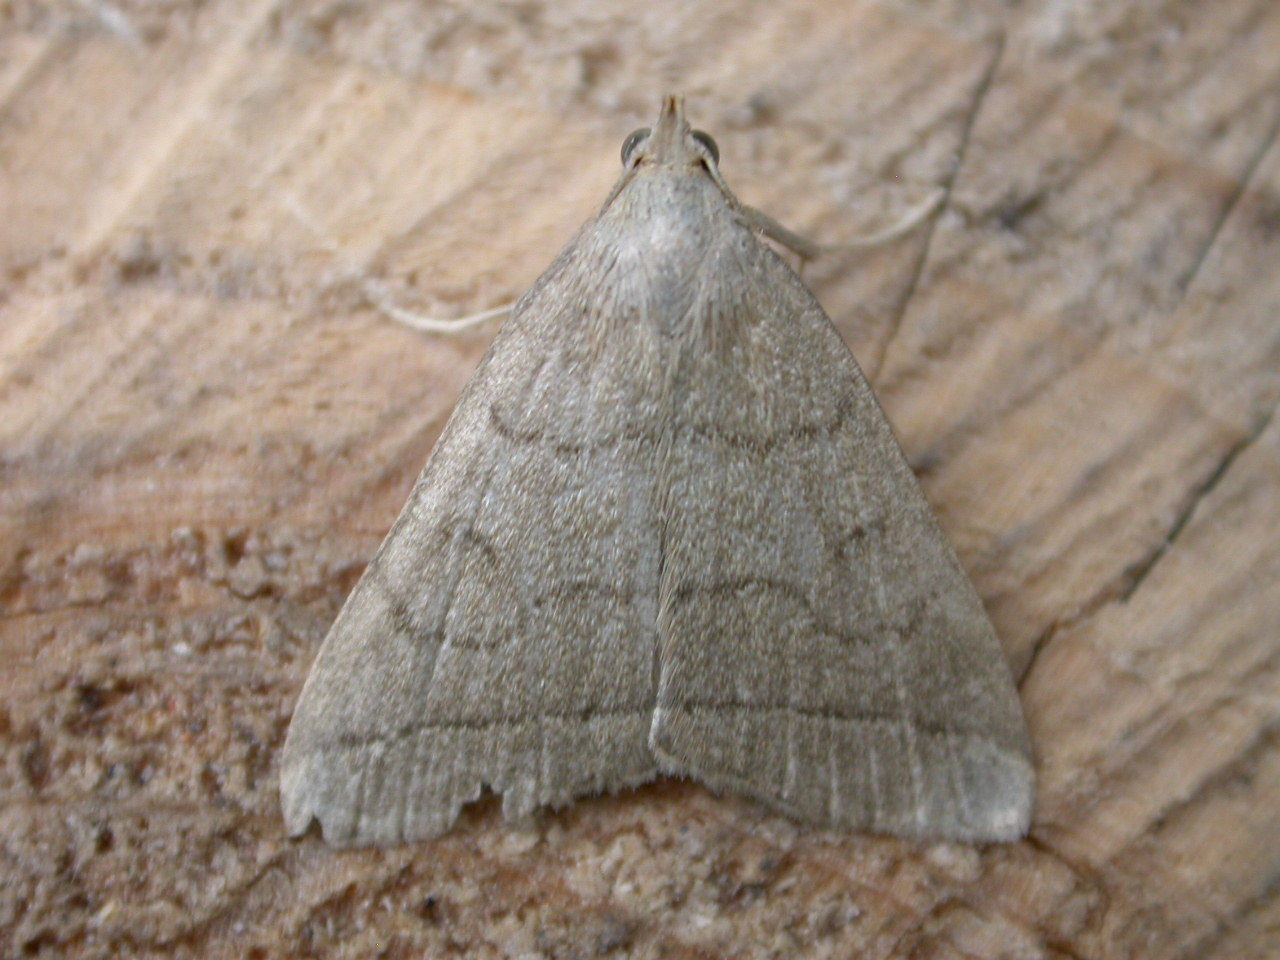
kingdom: Animalia
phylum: Arthropoda
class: Insecta
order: Lepidoptera
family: Erebidae
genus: Herminia
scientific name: Herminia tarsipennalis
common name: Fan-foot
